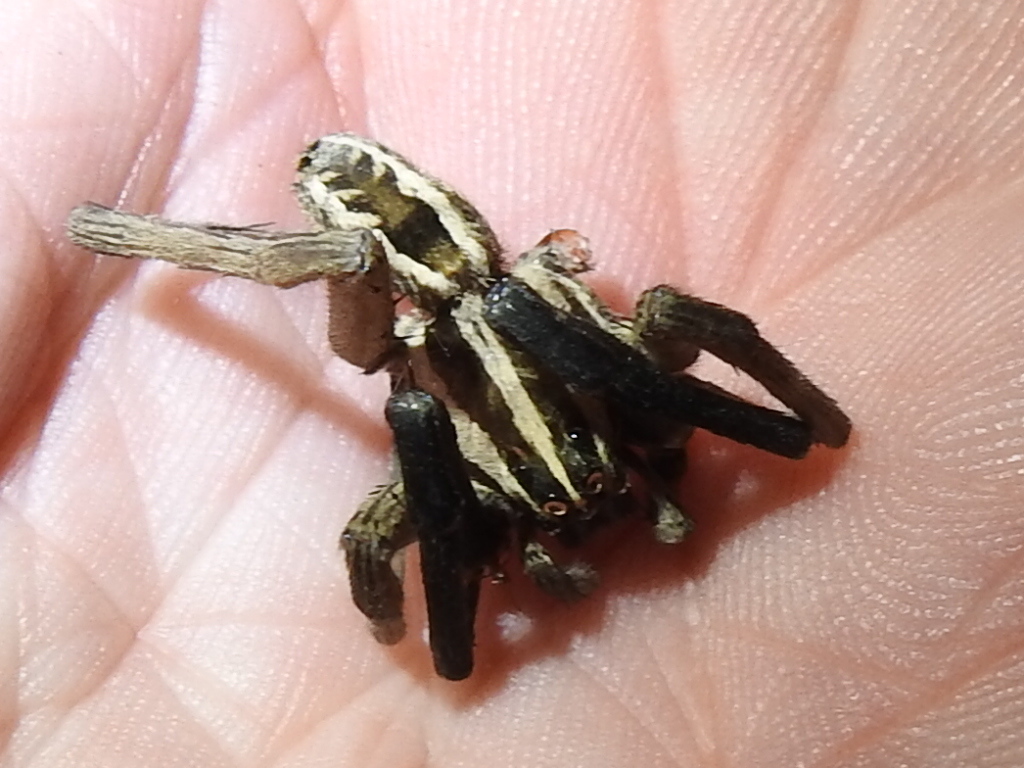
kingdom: Animalia
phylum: Arthropoda
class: Arachnida
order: Araneae
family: Lycosidae
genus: Rabidosa
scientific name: Rabidosa rabida
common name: Rabid wolf spider
